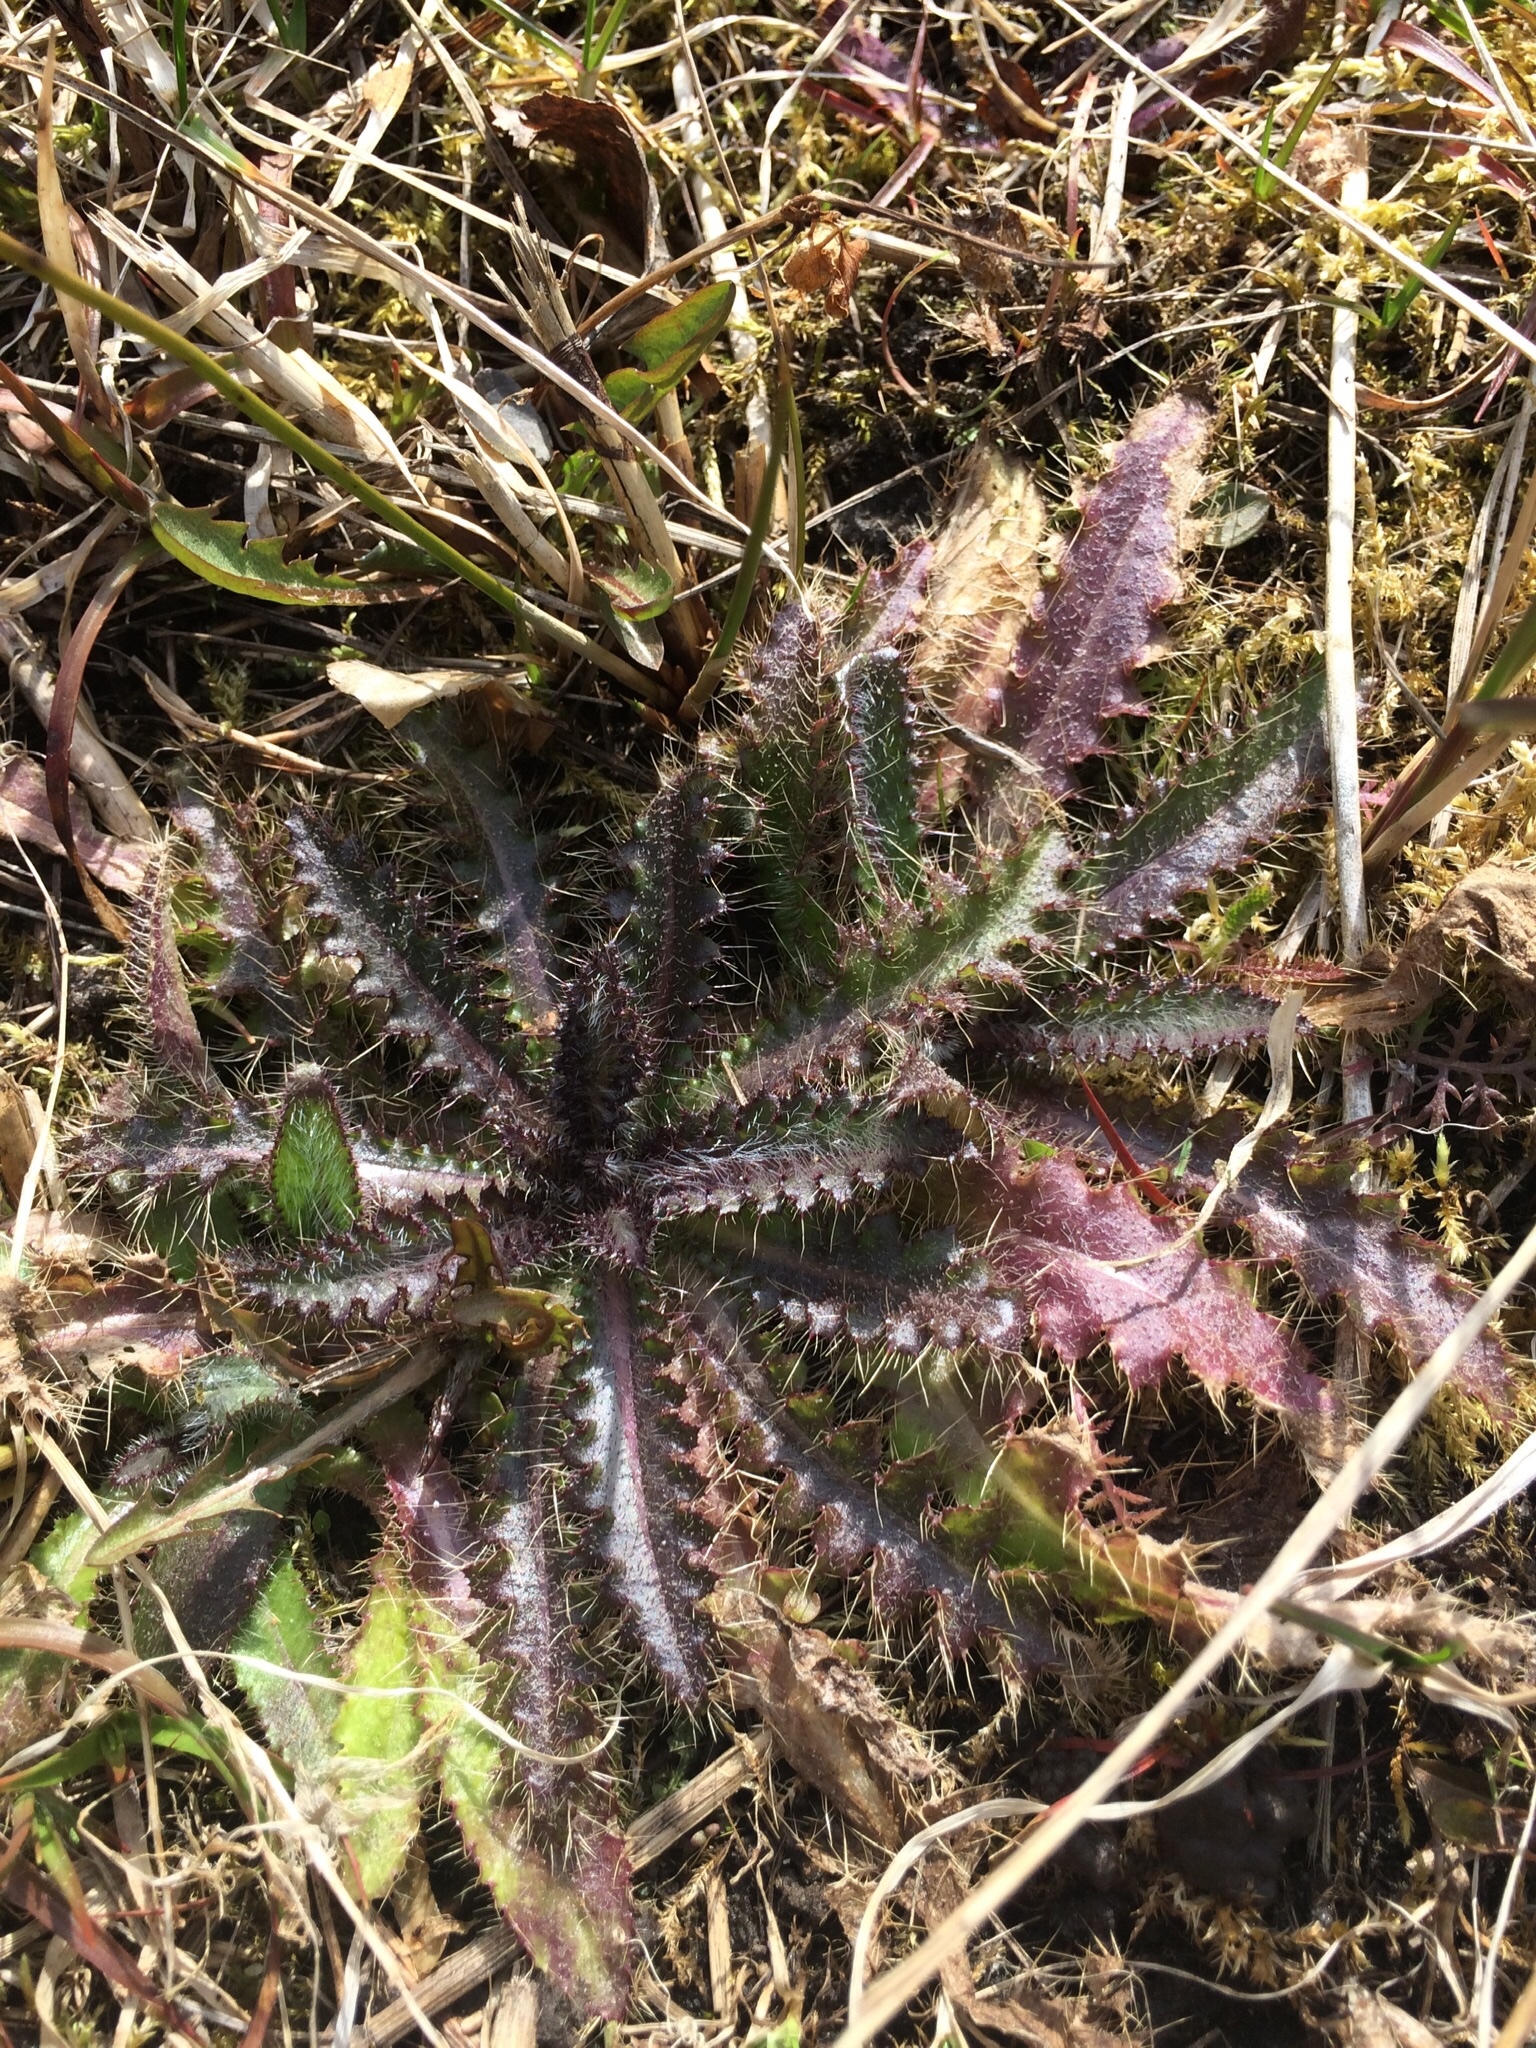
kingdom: Plantae
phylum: Tracheophyta
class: Magnoliopsida
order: Asterales
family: Asteraceae
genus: Cirsium
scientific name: Cirsium palustre
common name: Marsh thistle
